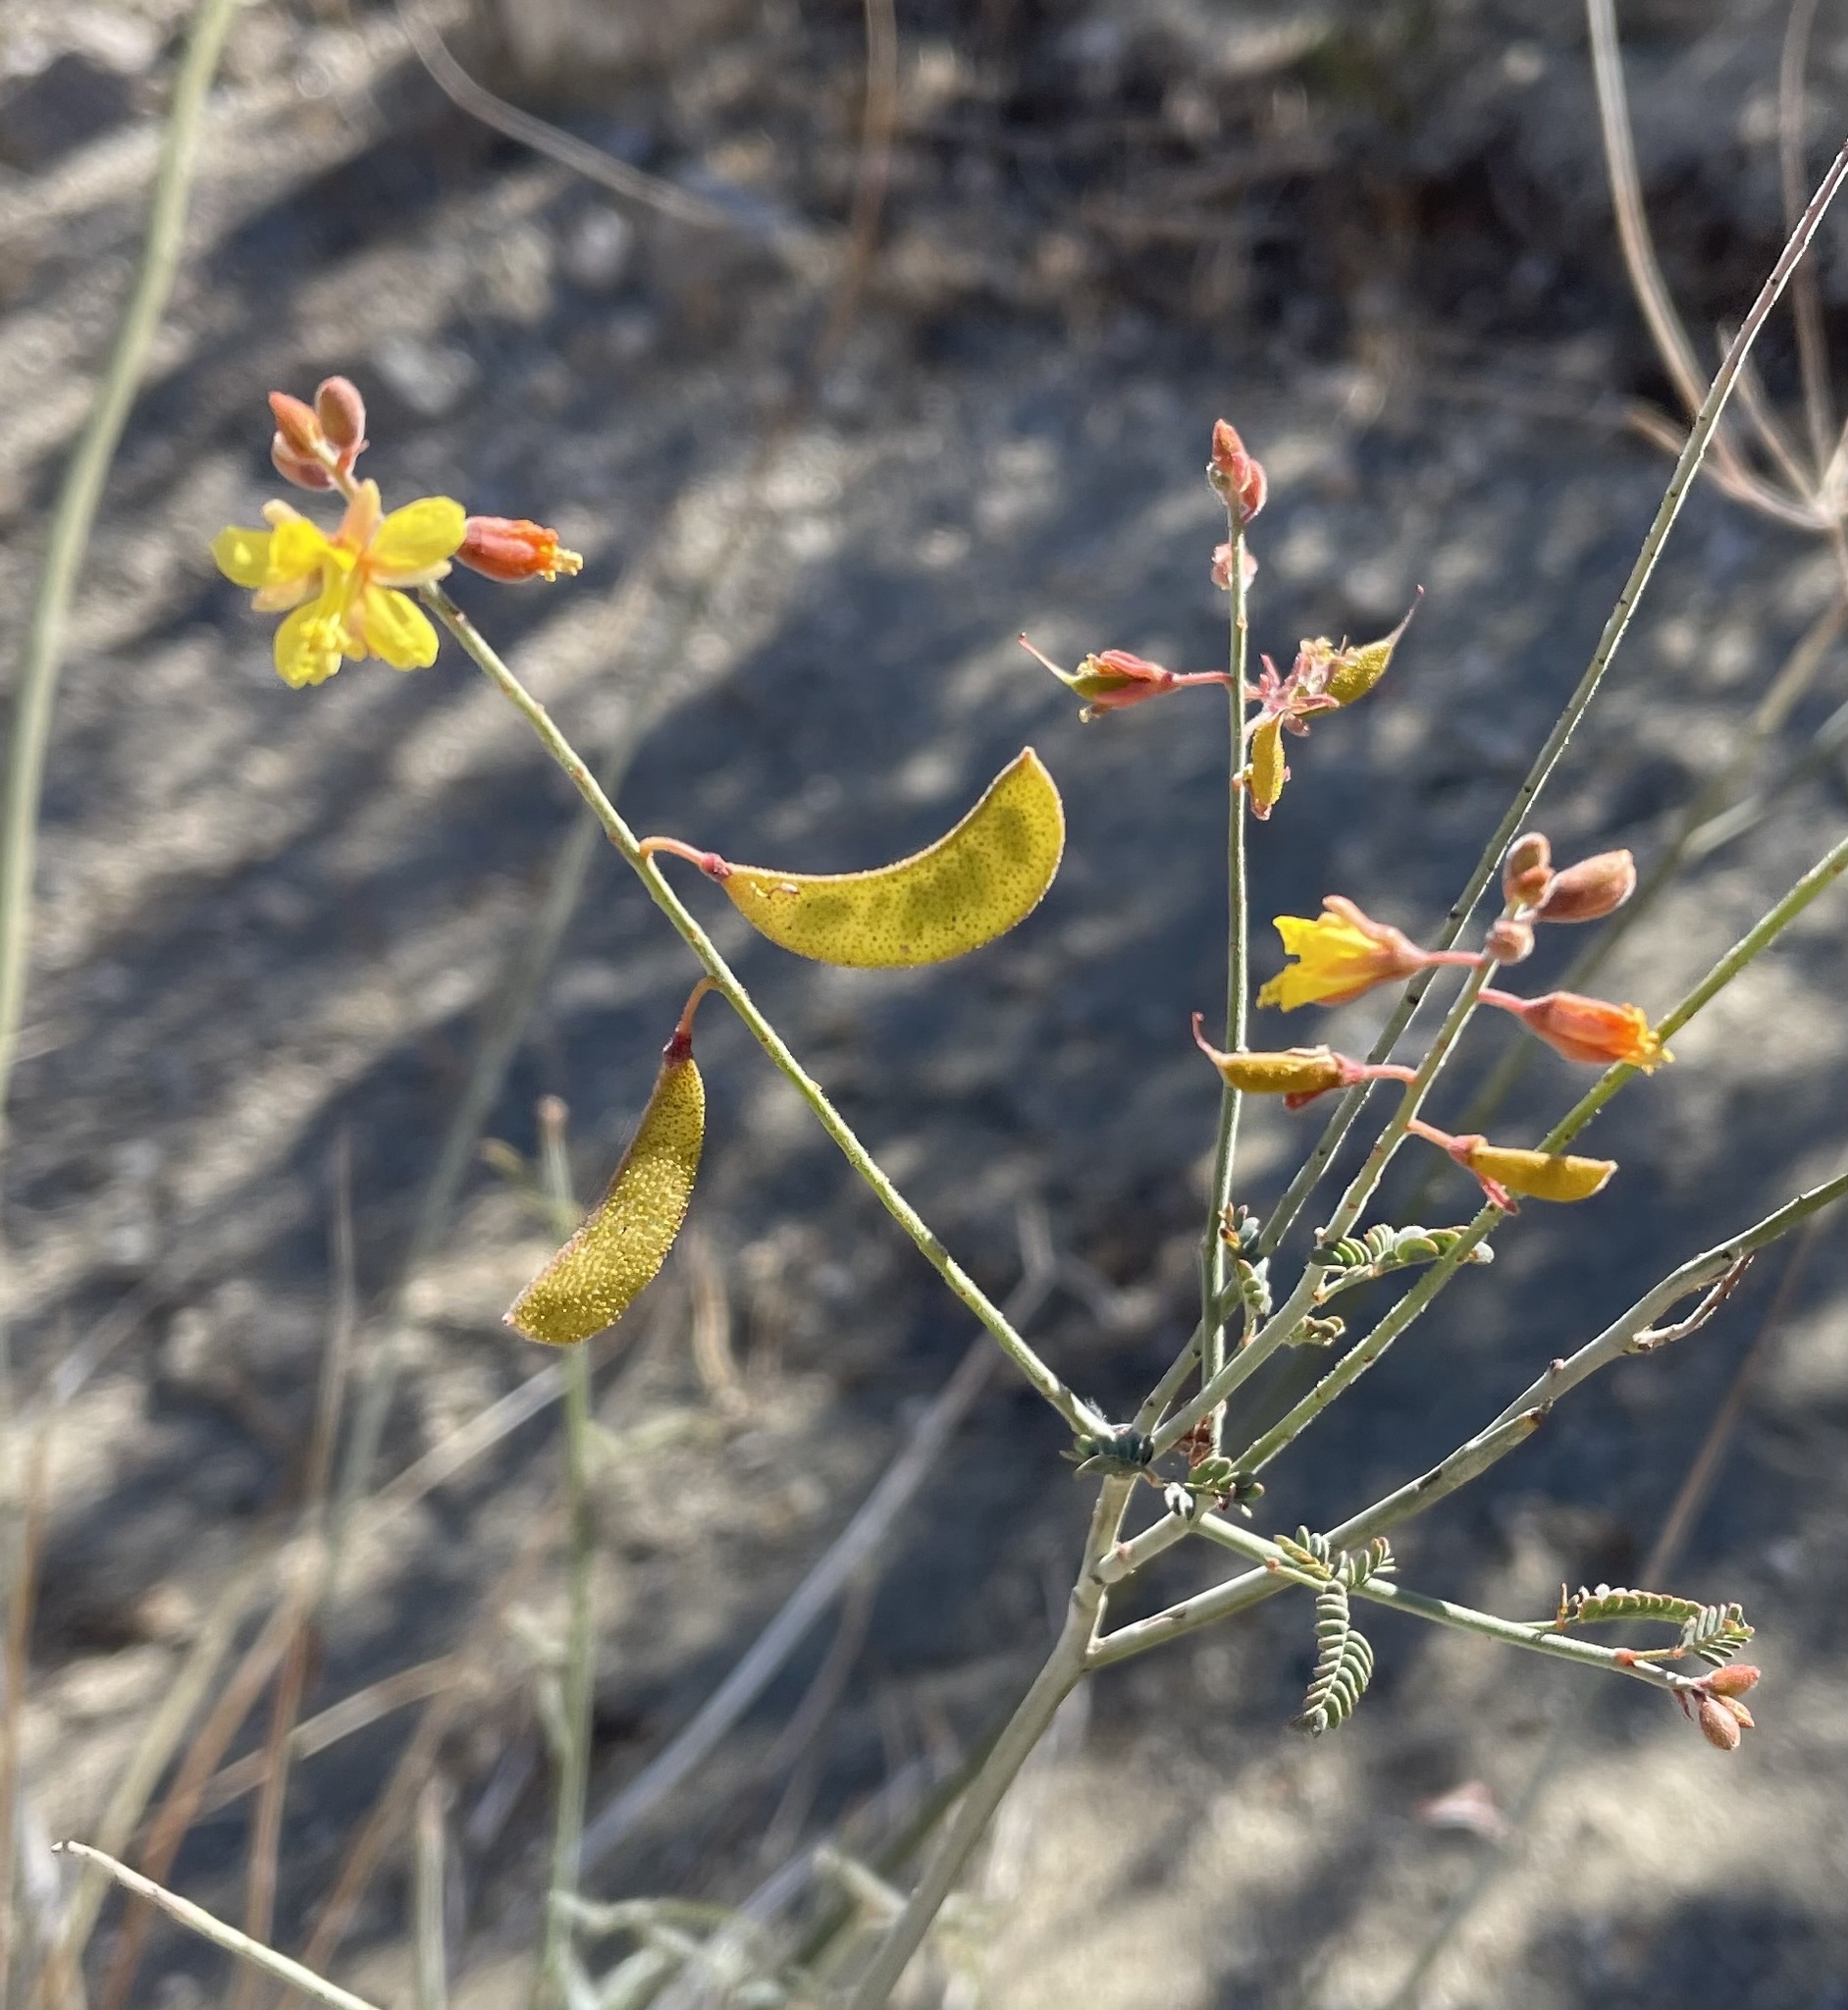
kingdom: Plantae
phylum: Tracheophyta
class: Magnoliopsida
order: Fabales
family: Fabaceae
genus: Hoffmannseggia
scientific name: Hoffmannseggia microphylla
